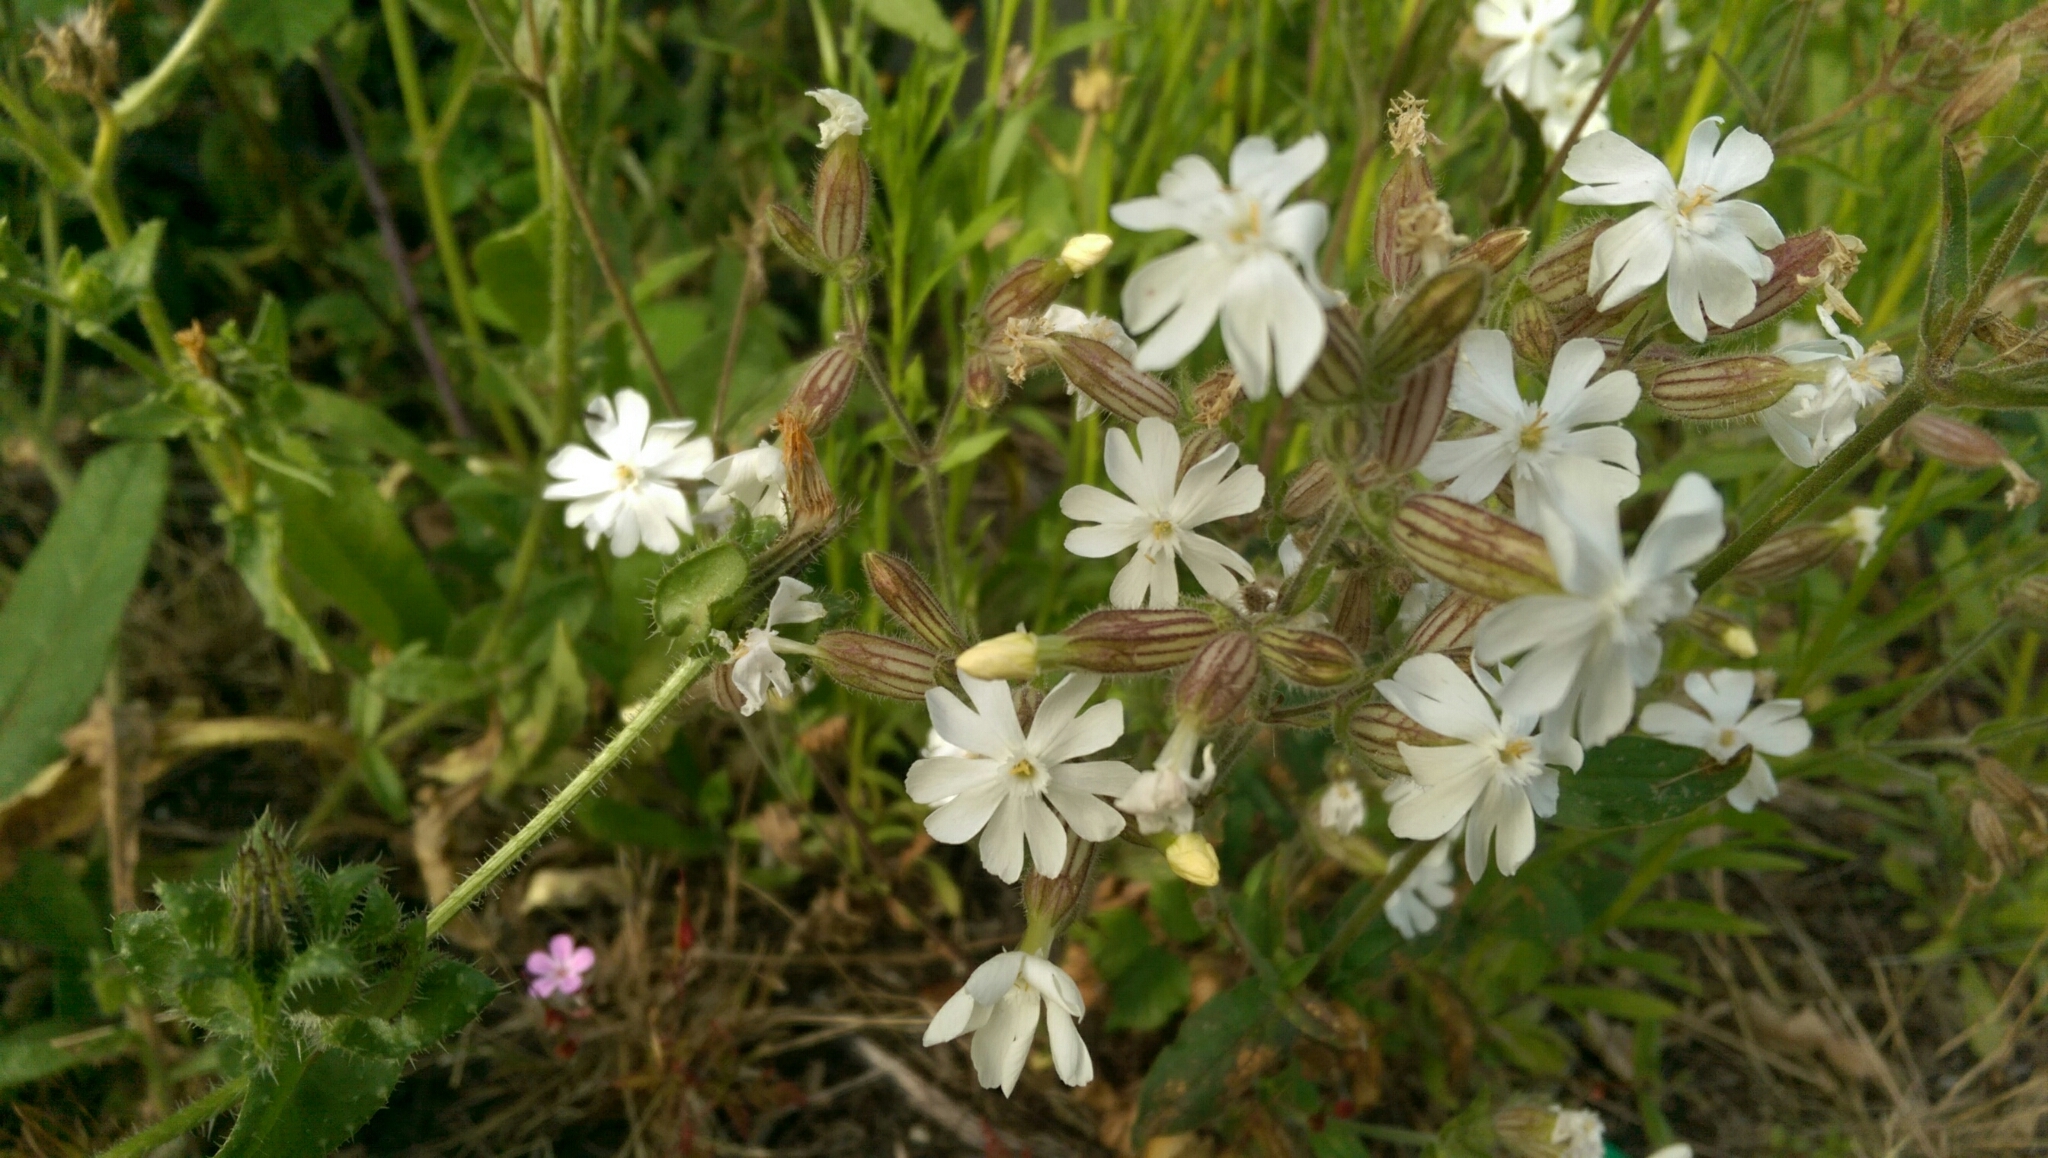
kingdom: Plantae
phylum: Tracheophyta
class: Magnoliopsida
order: Caryophyllales
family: Caryophyllaceae
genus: Silene
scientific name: Silene latifolia
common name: White campion
